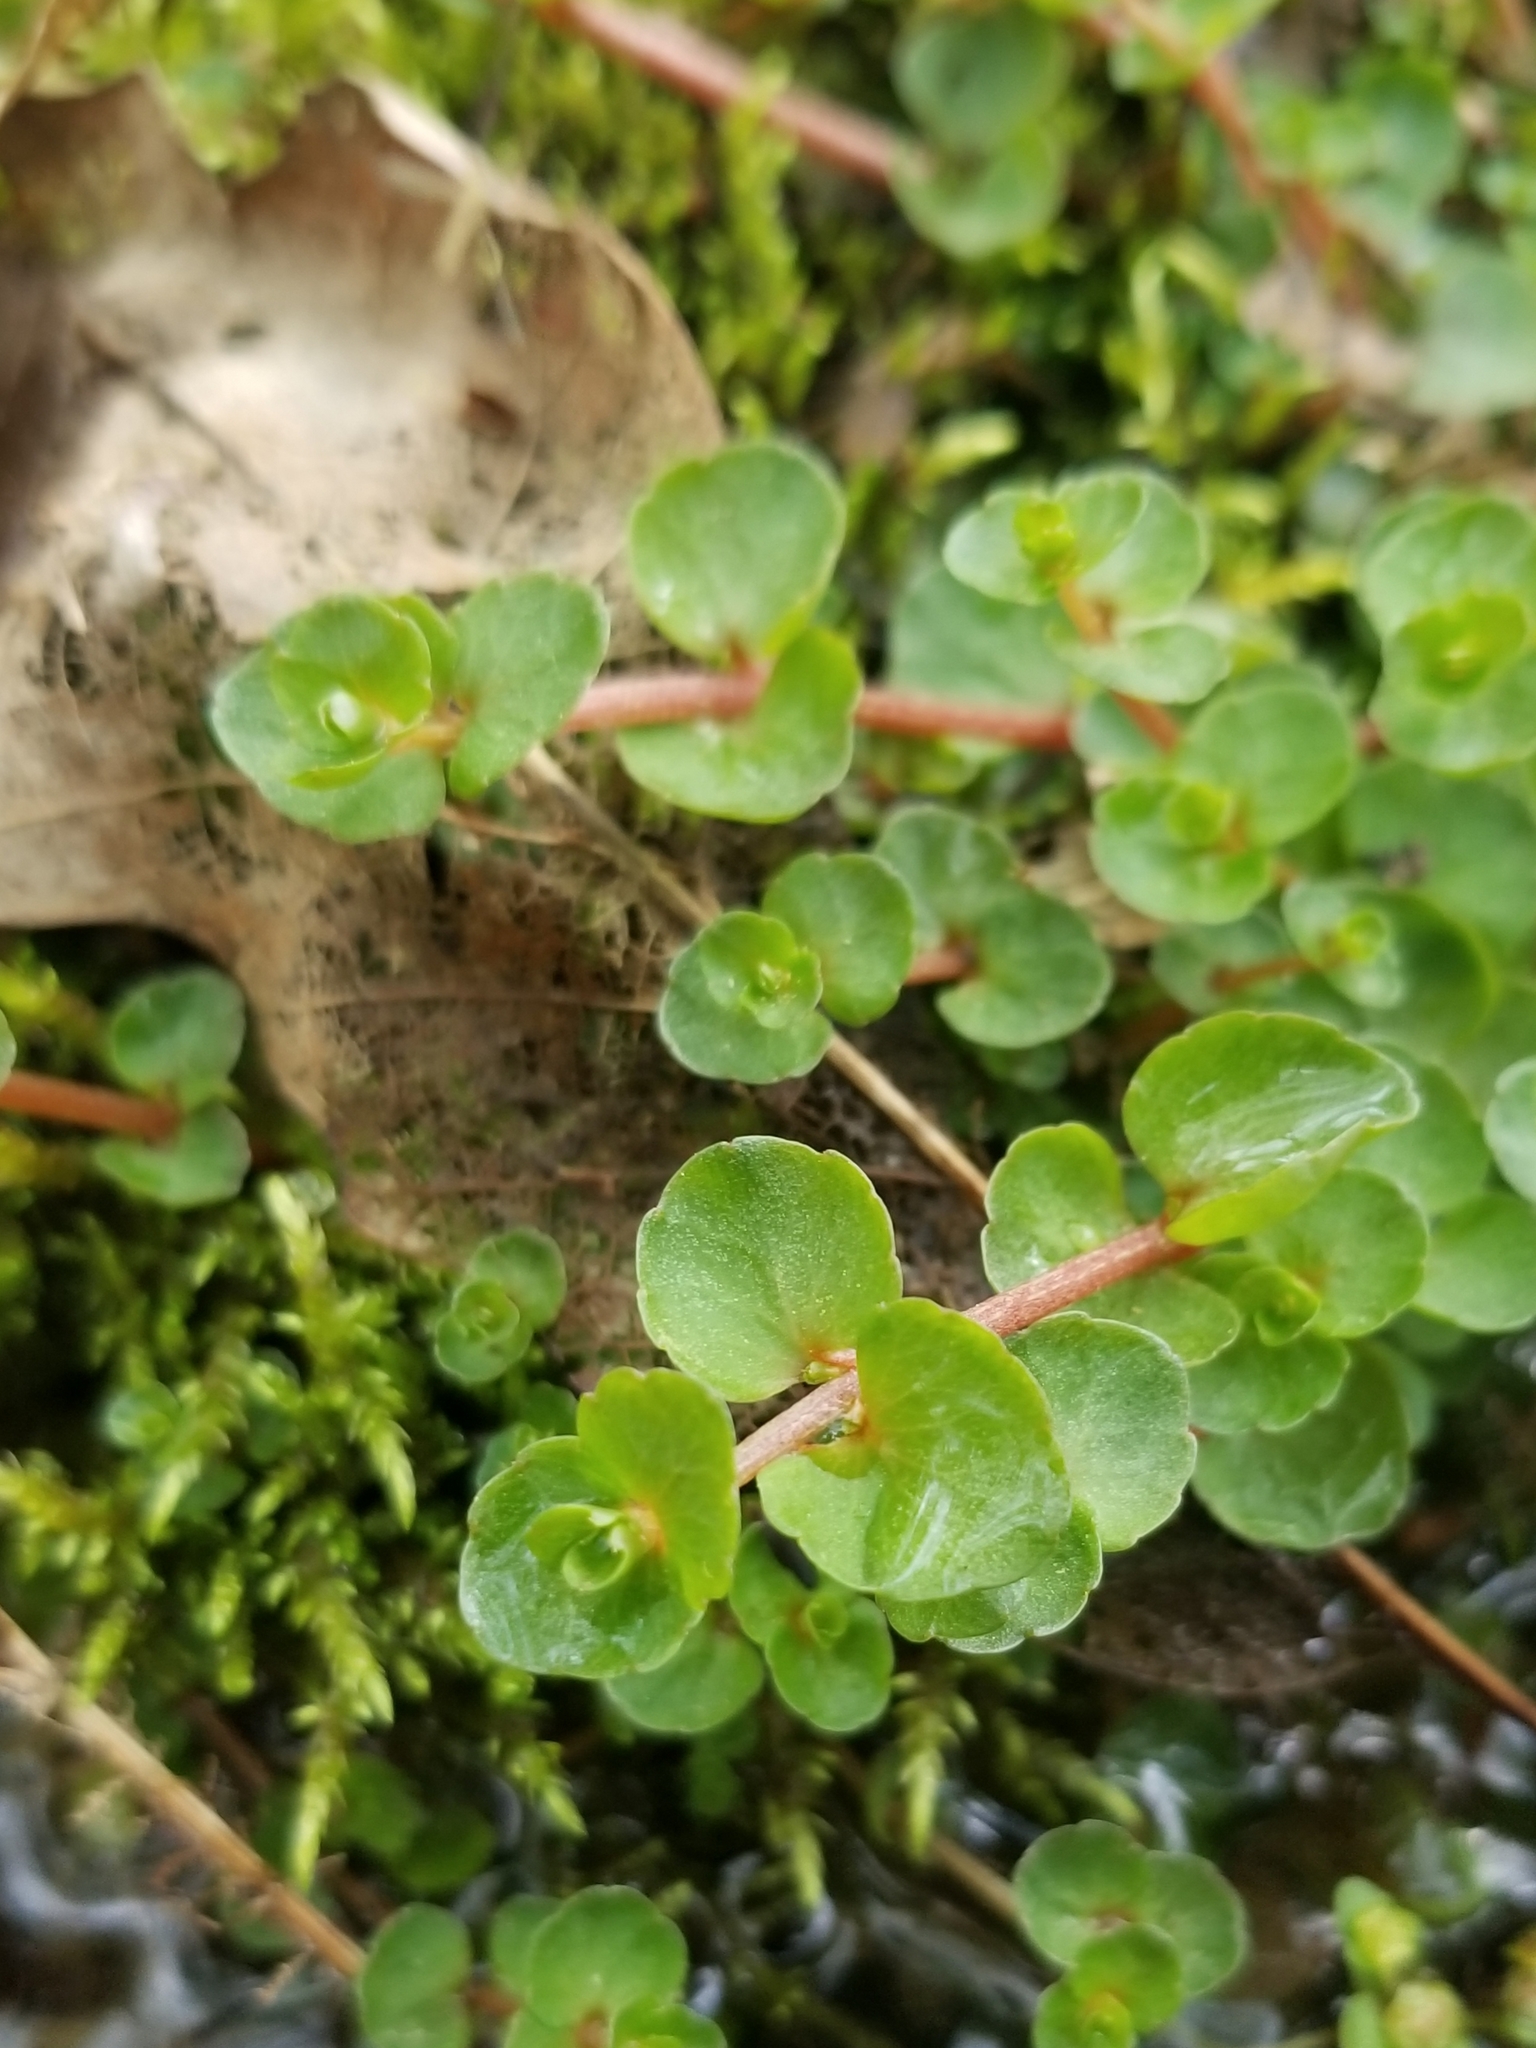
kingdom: Plantae
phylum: Tracheophyta
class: Magnoliopsida
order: Saxifragales
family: Saxifragaceae
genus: Chrysosplenium
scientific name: Chrysosplenium americanum
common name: American golden-saxifrage
